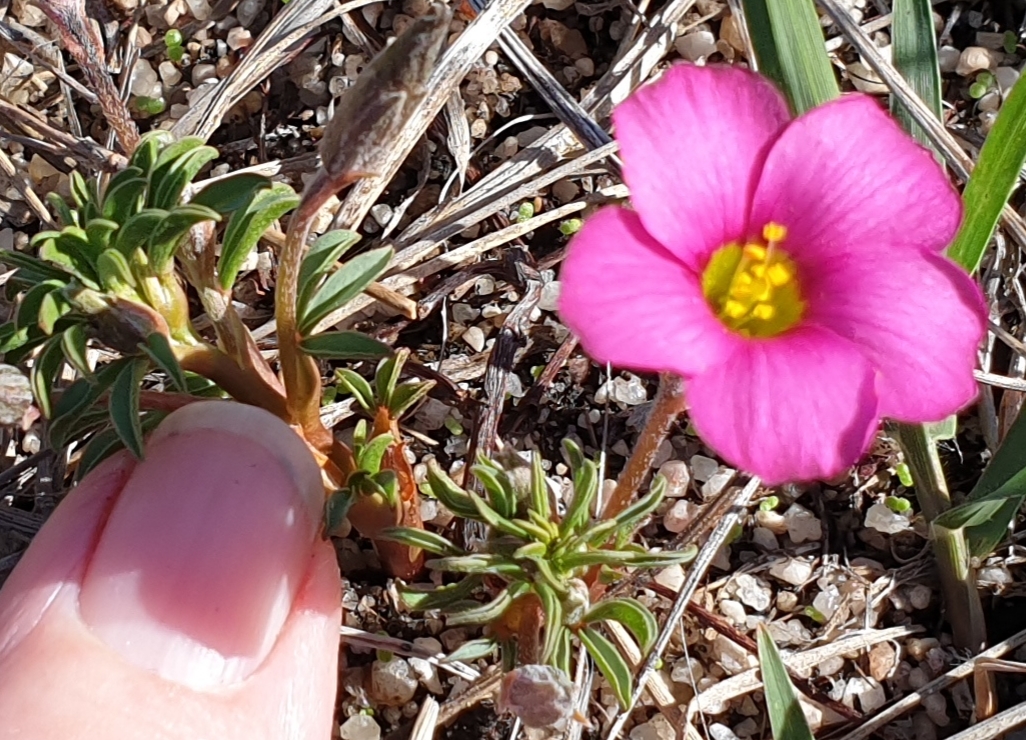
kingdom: Plantae
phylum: Tracheophyta
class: Magnoliopsida
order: Oxalidales
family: Oxalidaceae
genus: Oxalis
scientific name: Oxalis hirta
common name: Tropical woodsorrel
